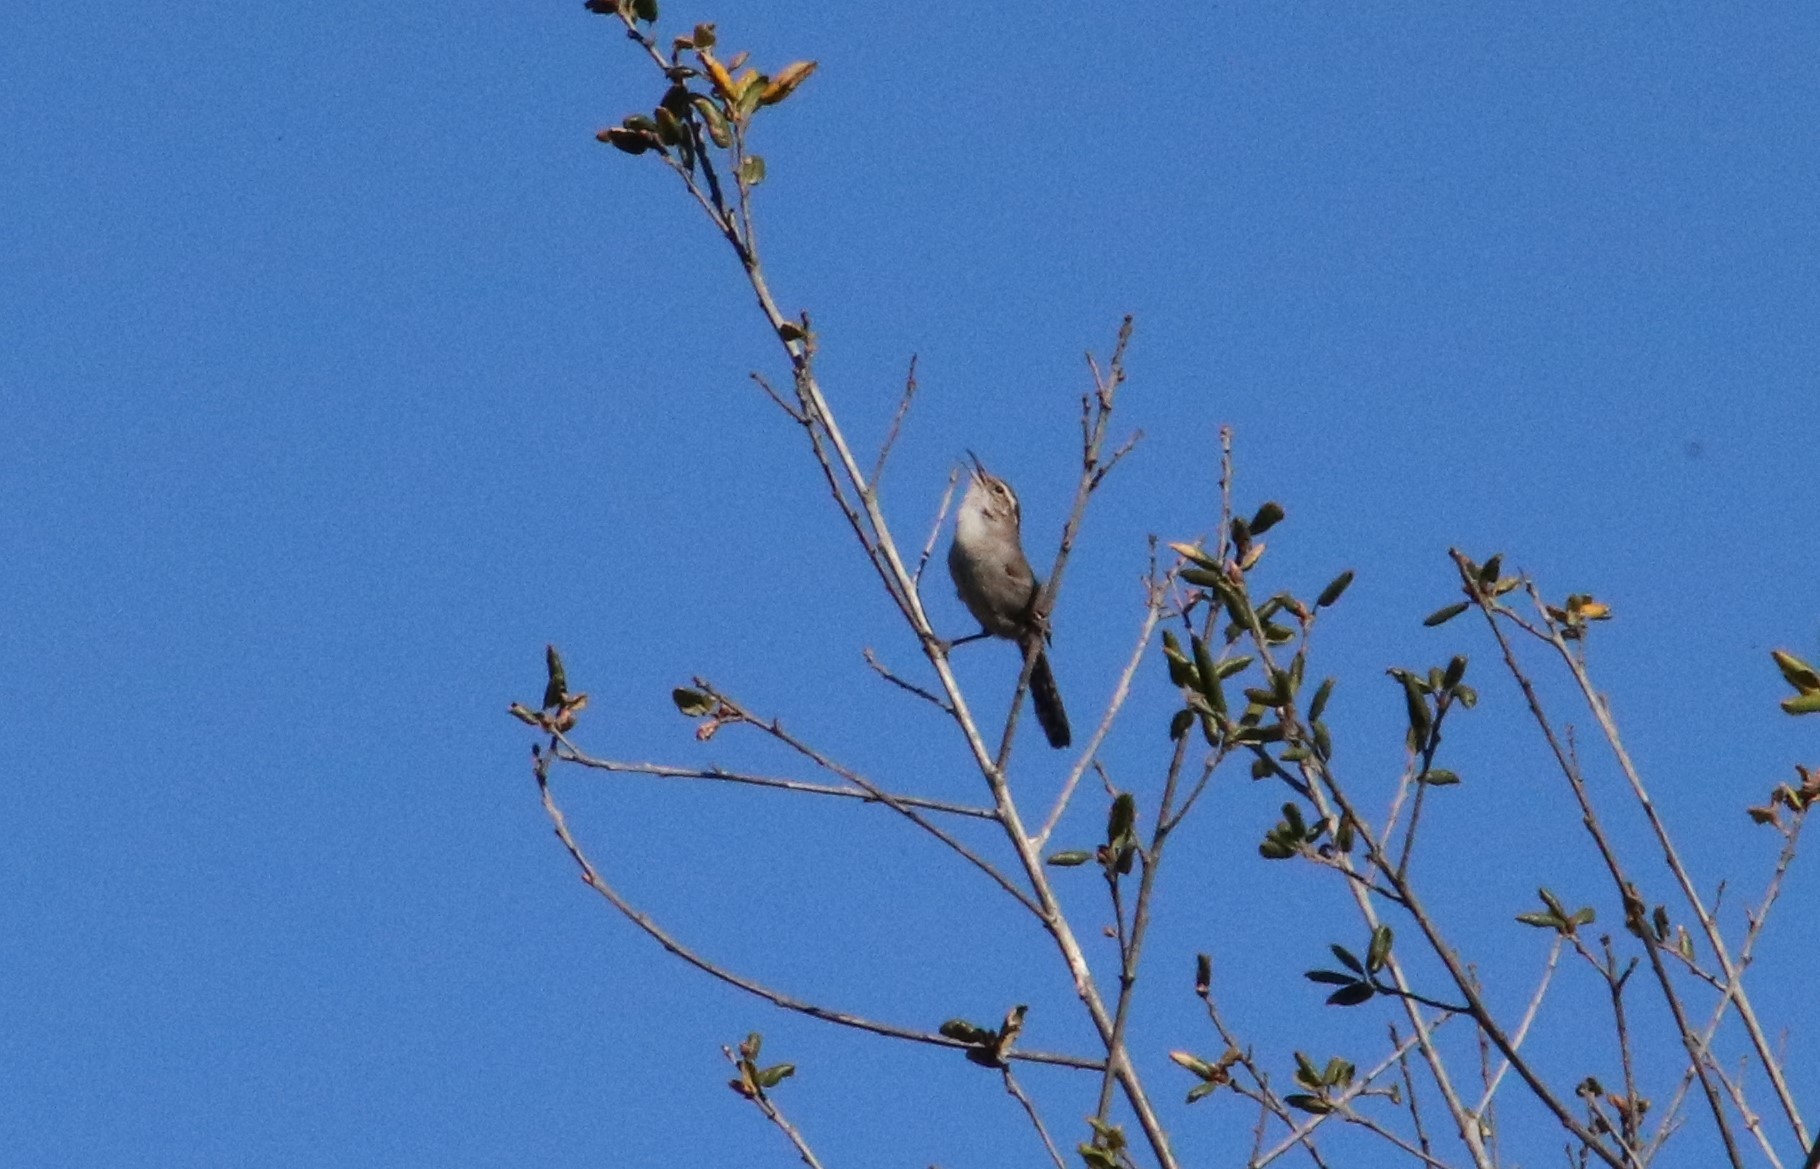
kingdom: Animalia
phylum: Chordata
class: Aves
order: Passeriformes
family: Troglodytidae
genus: Thryomanes
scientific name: Thryomanes bewickii
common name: Bewick's wren
